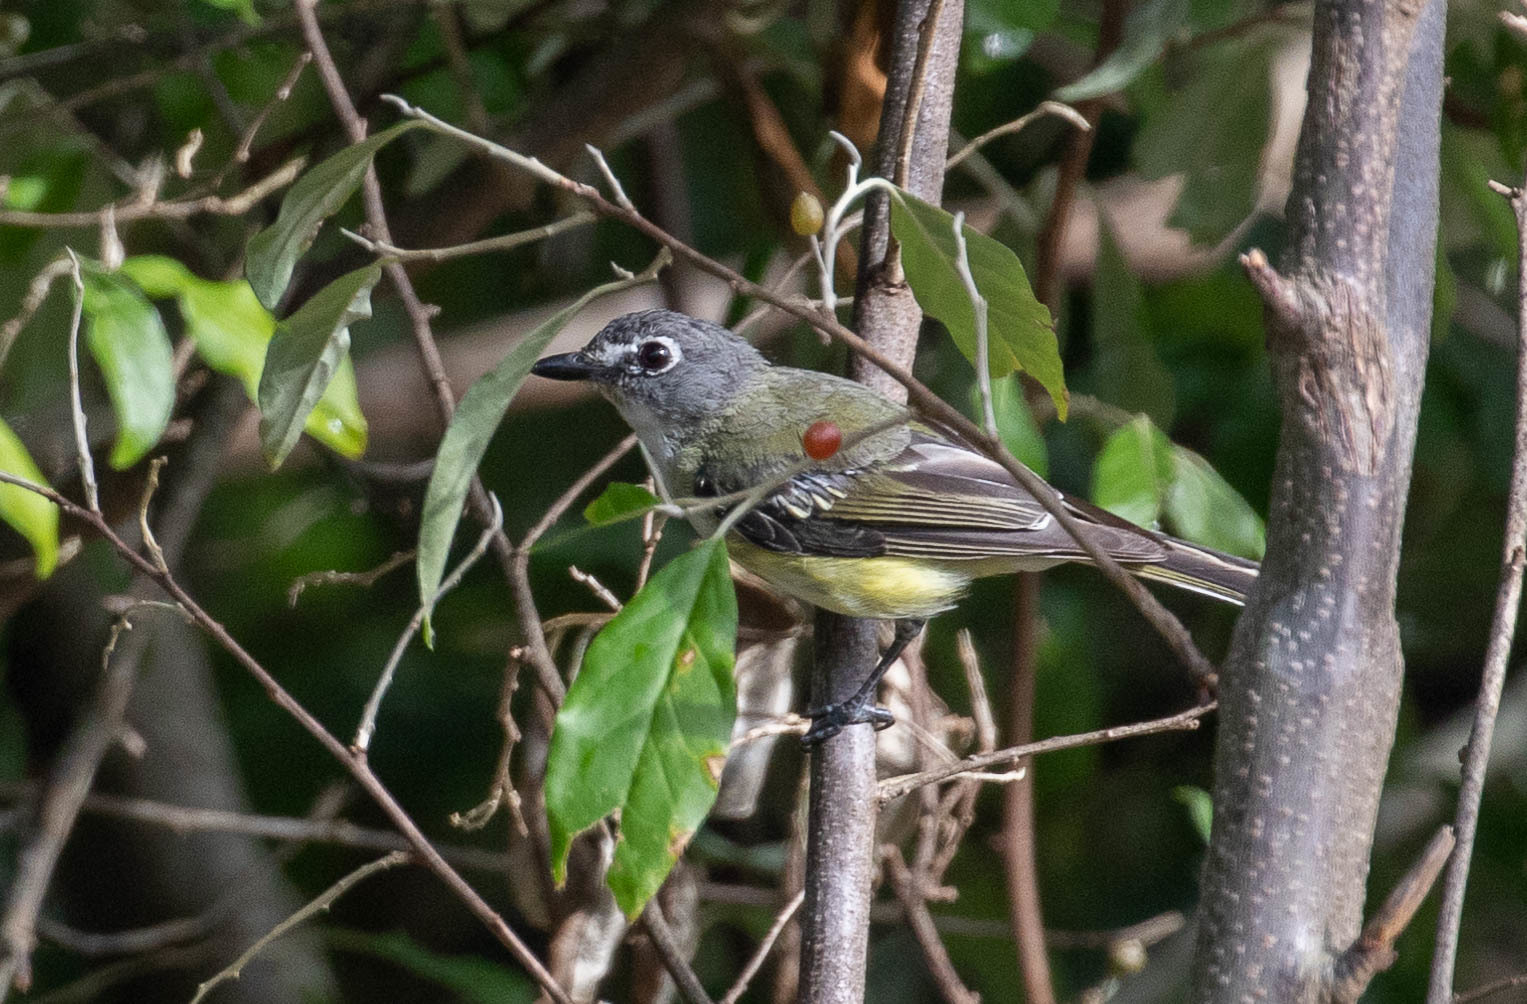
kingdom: Animalia
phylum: Chordata
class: Aves
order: Passeriformes
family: Vireonidae
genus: Vireo
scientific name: Vireo solitarius
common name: Blue-headed vireo
